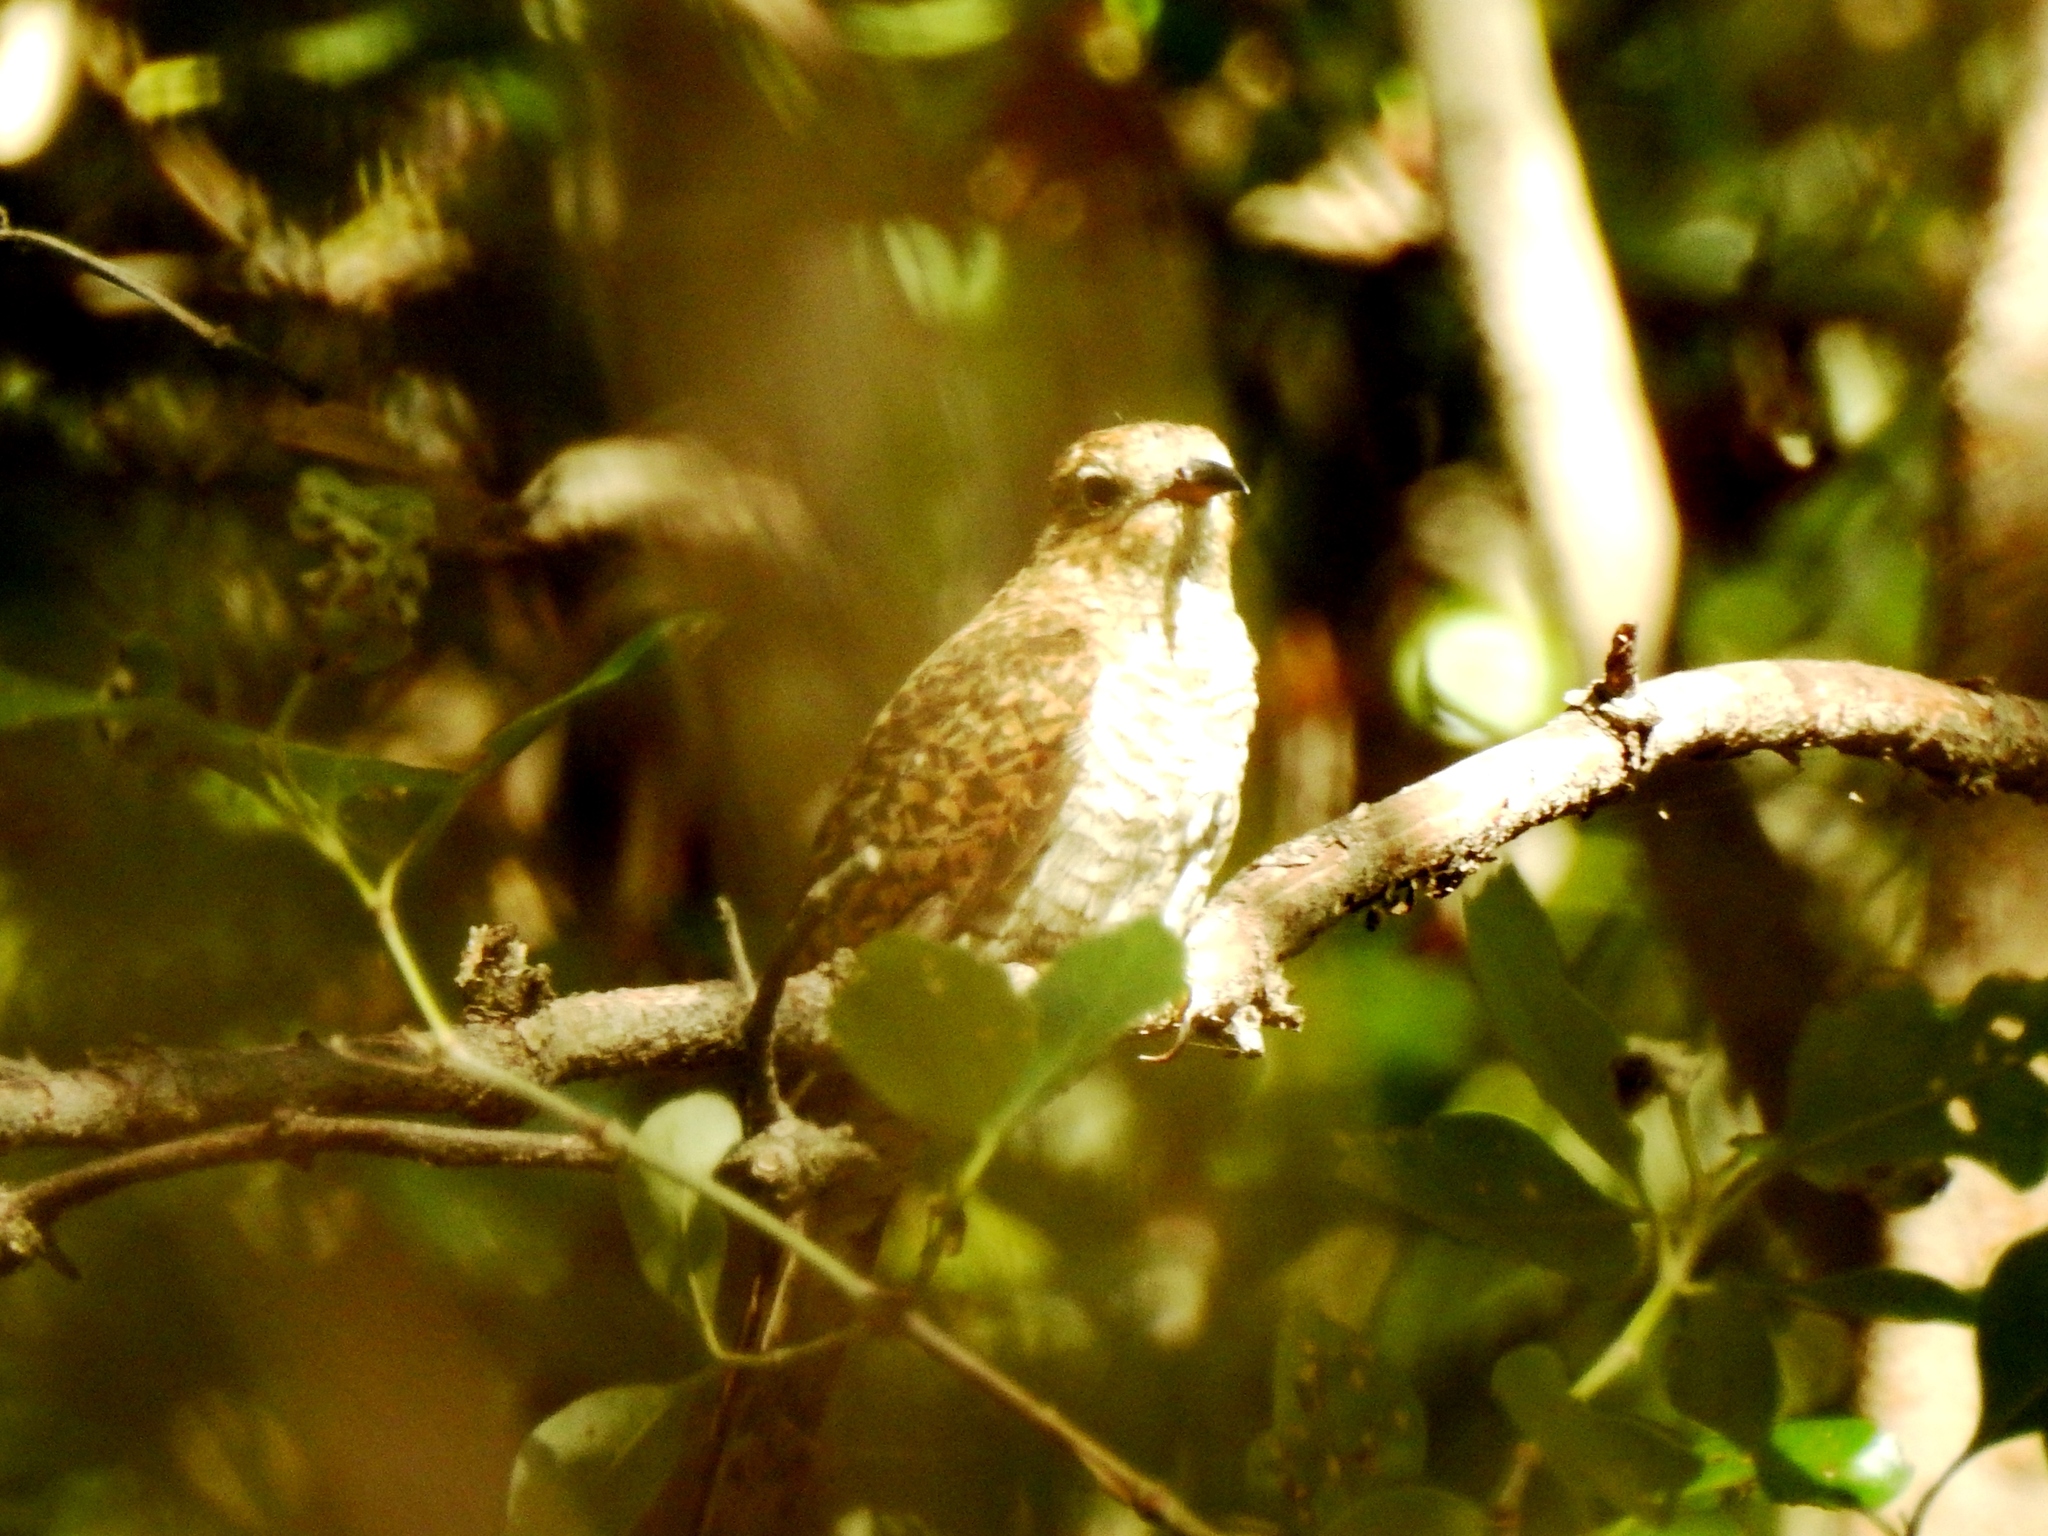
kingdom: Animalia
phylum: Chordata
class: Aves
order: Cuculiformes
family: Cuculidae
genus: Cacomantis
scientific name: Cacomantis merulinus
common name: Plaintive cuckoo
